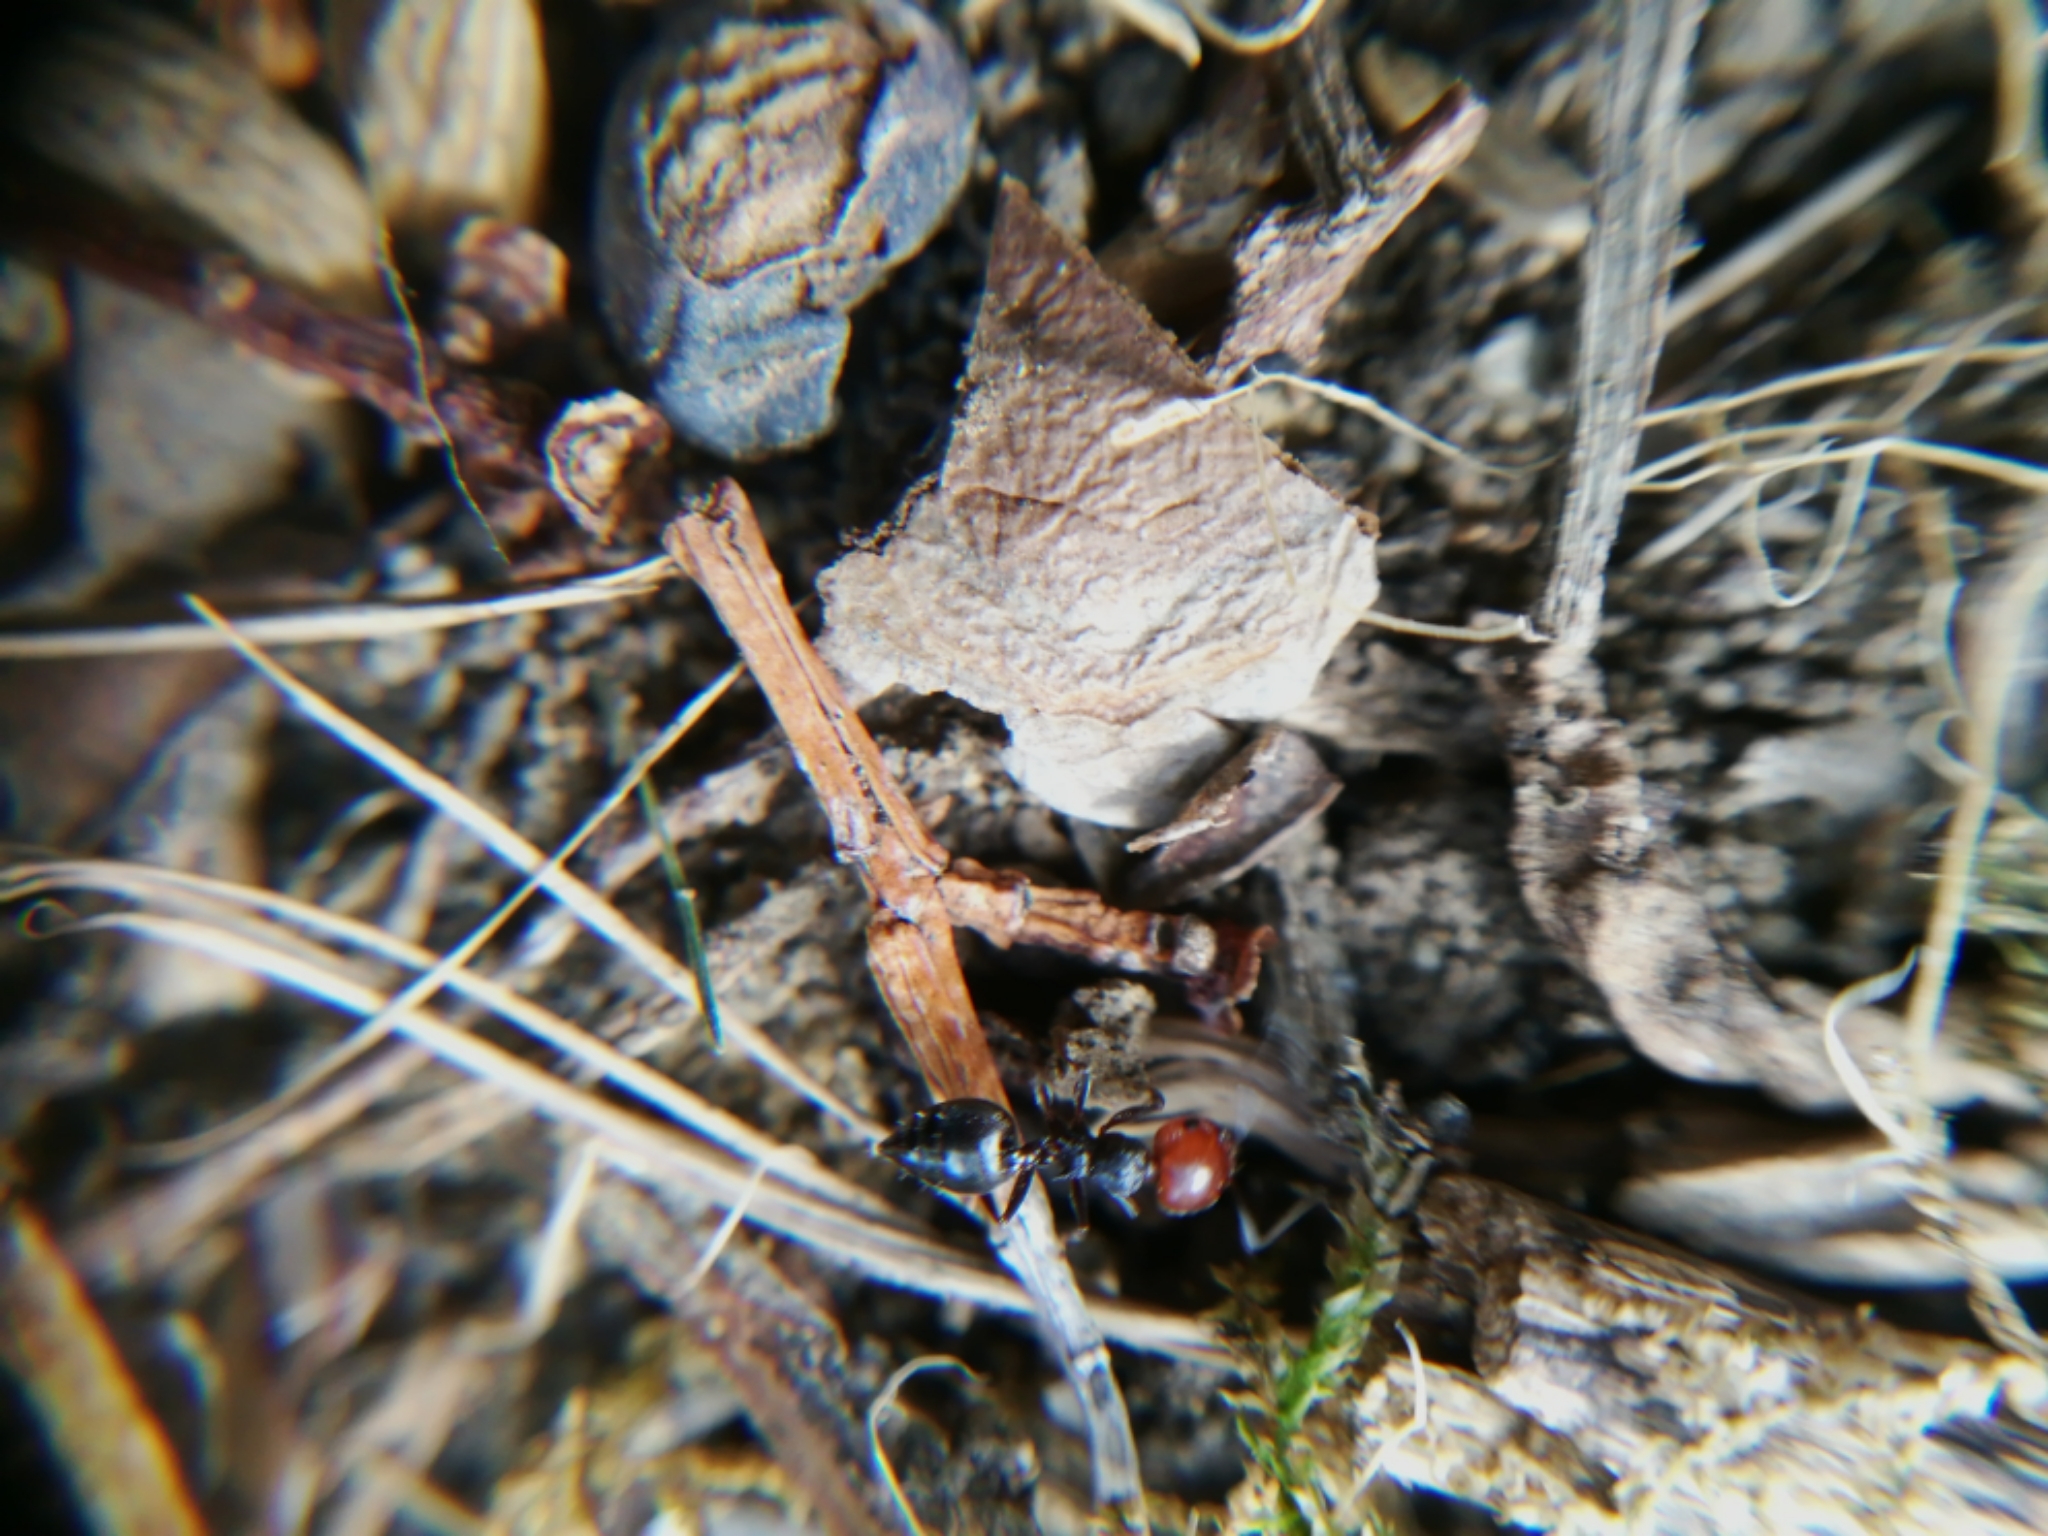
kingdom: Animalia
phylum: Arthropoda
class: Insecta
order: Hymenoptera
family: Formicidae
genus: Crematogaster
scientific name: Crematogaster scutellaris
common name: Fourmi du liège
